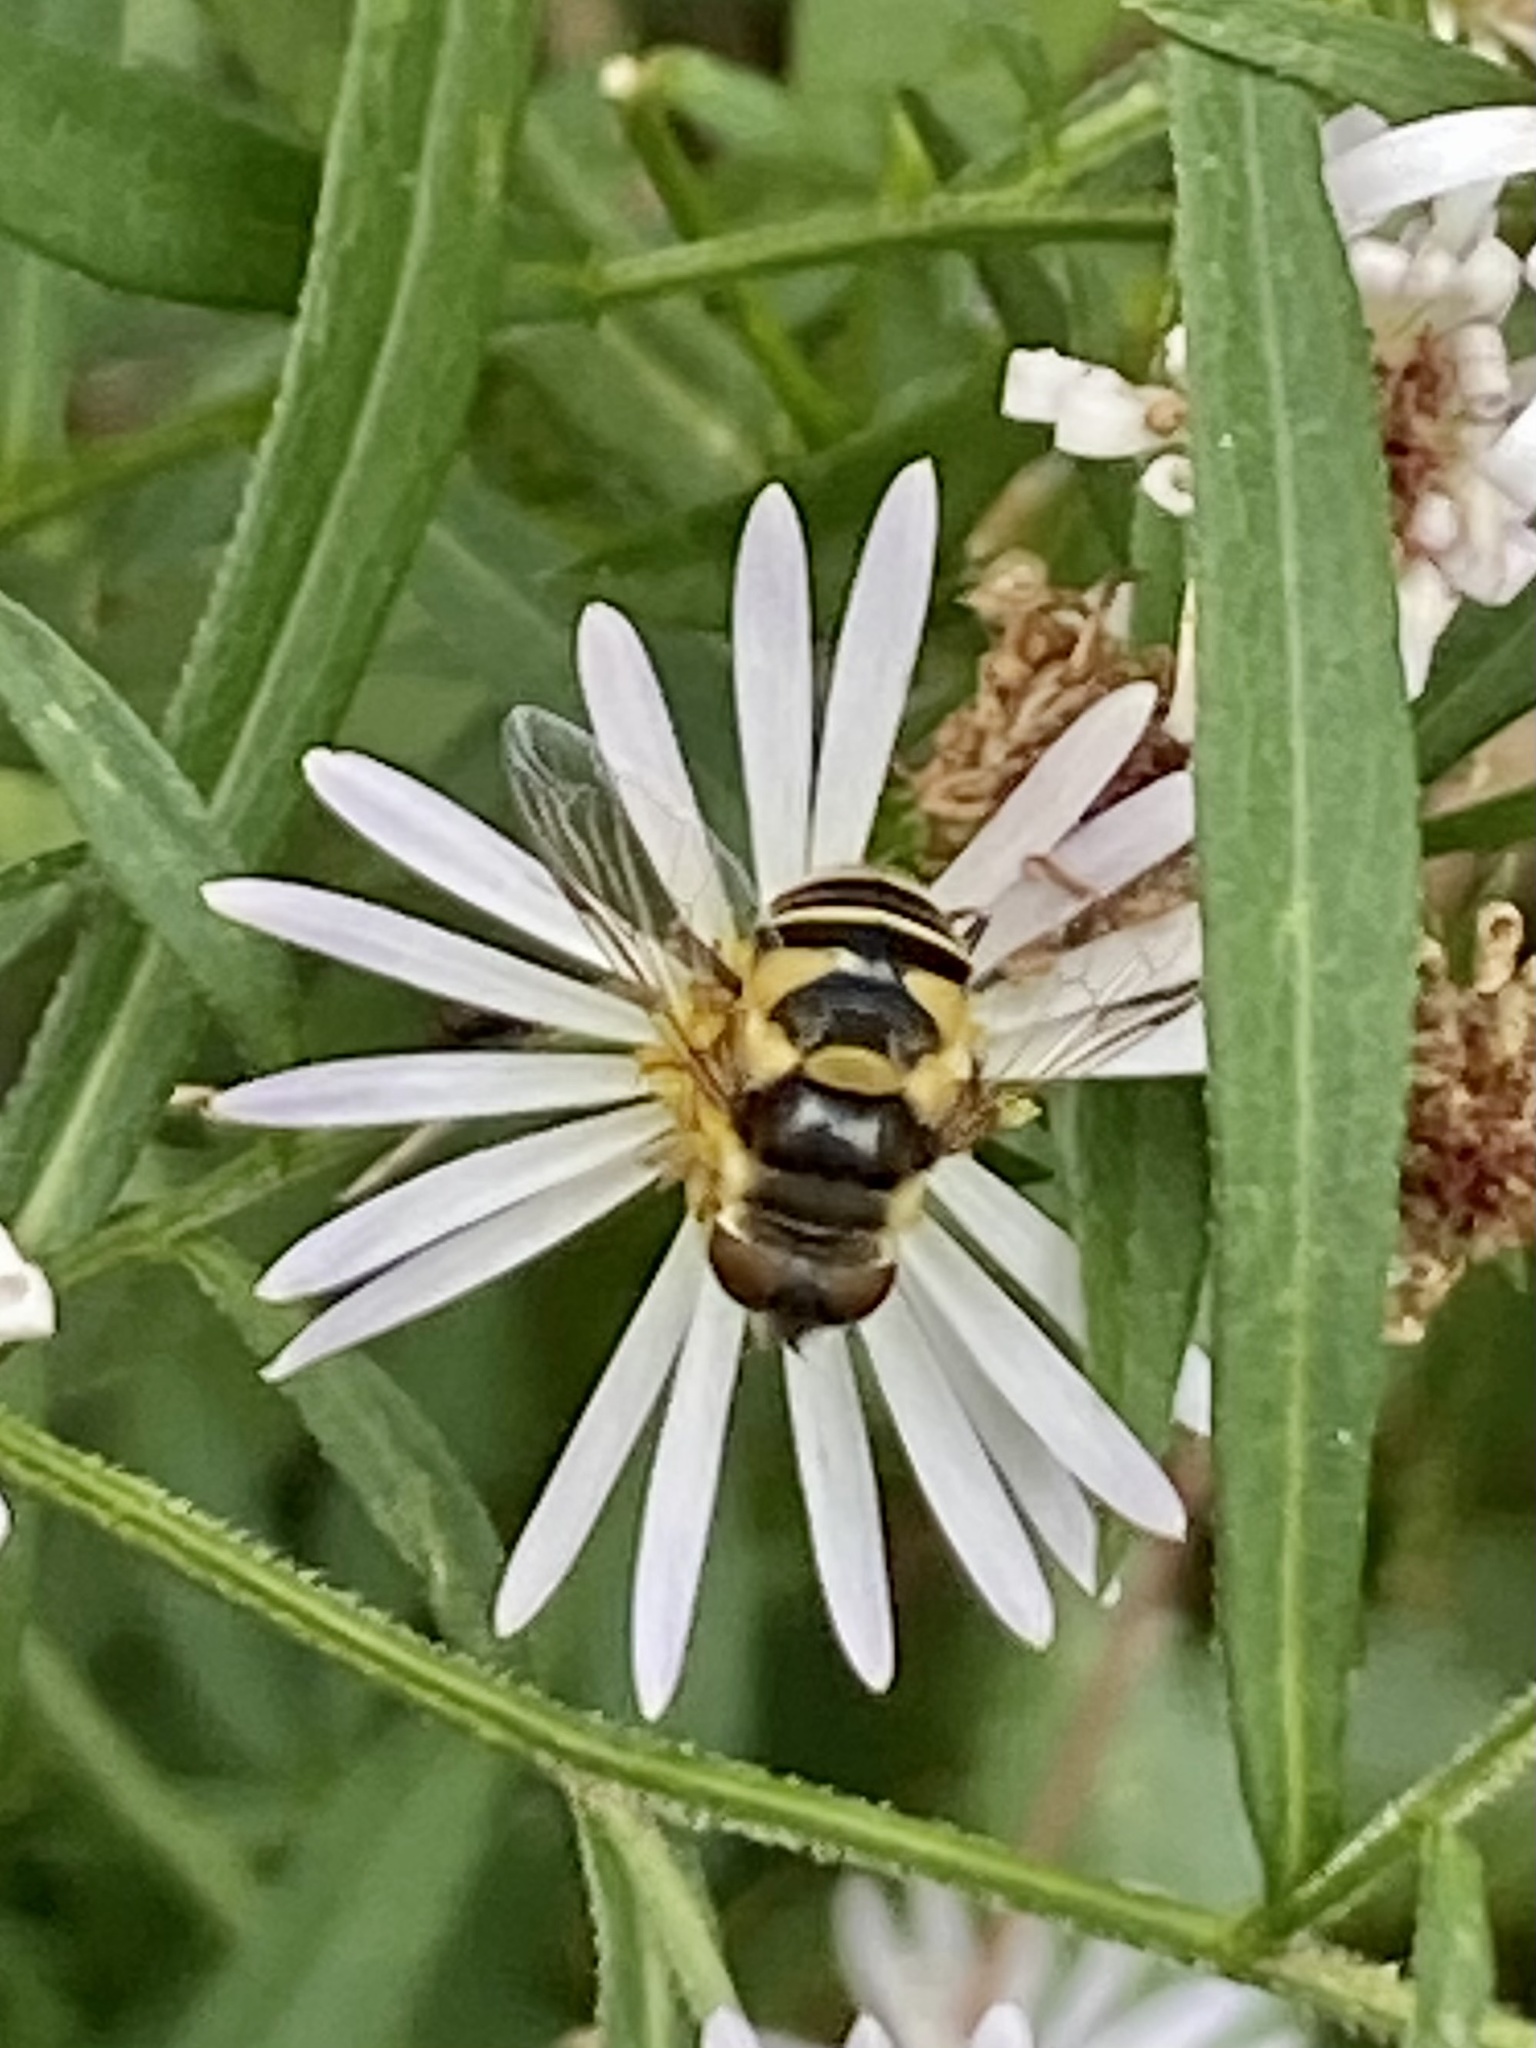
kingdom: Animalia
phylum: Arthropoda
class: Insecta
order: Diptera
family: Syrphidae
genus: Eristalis
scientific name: Eristalis transversa
